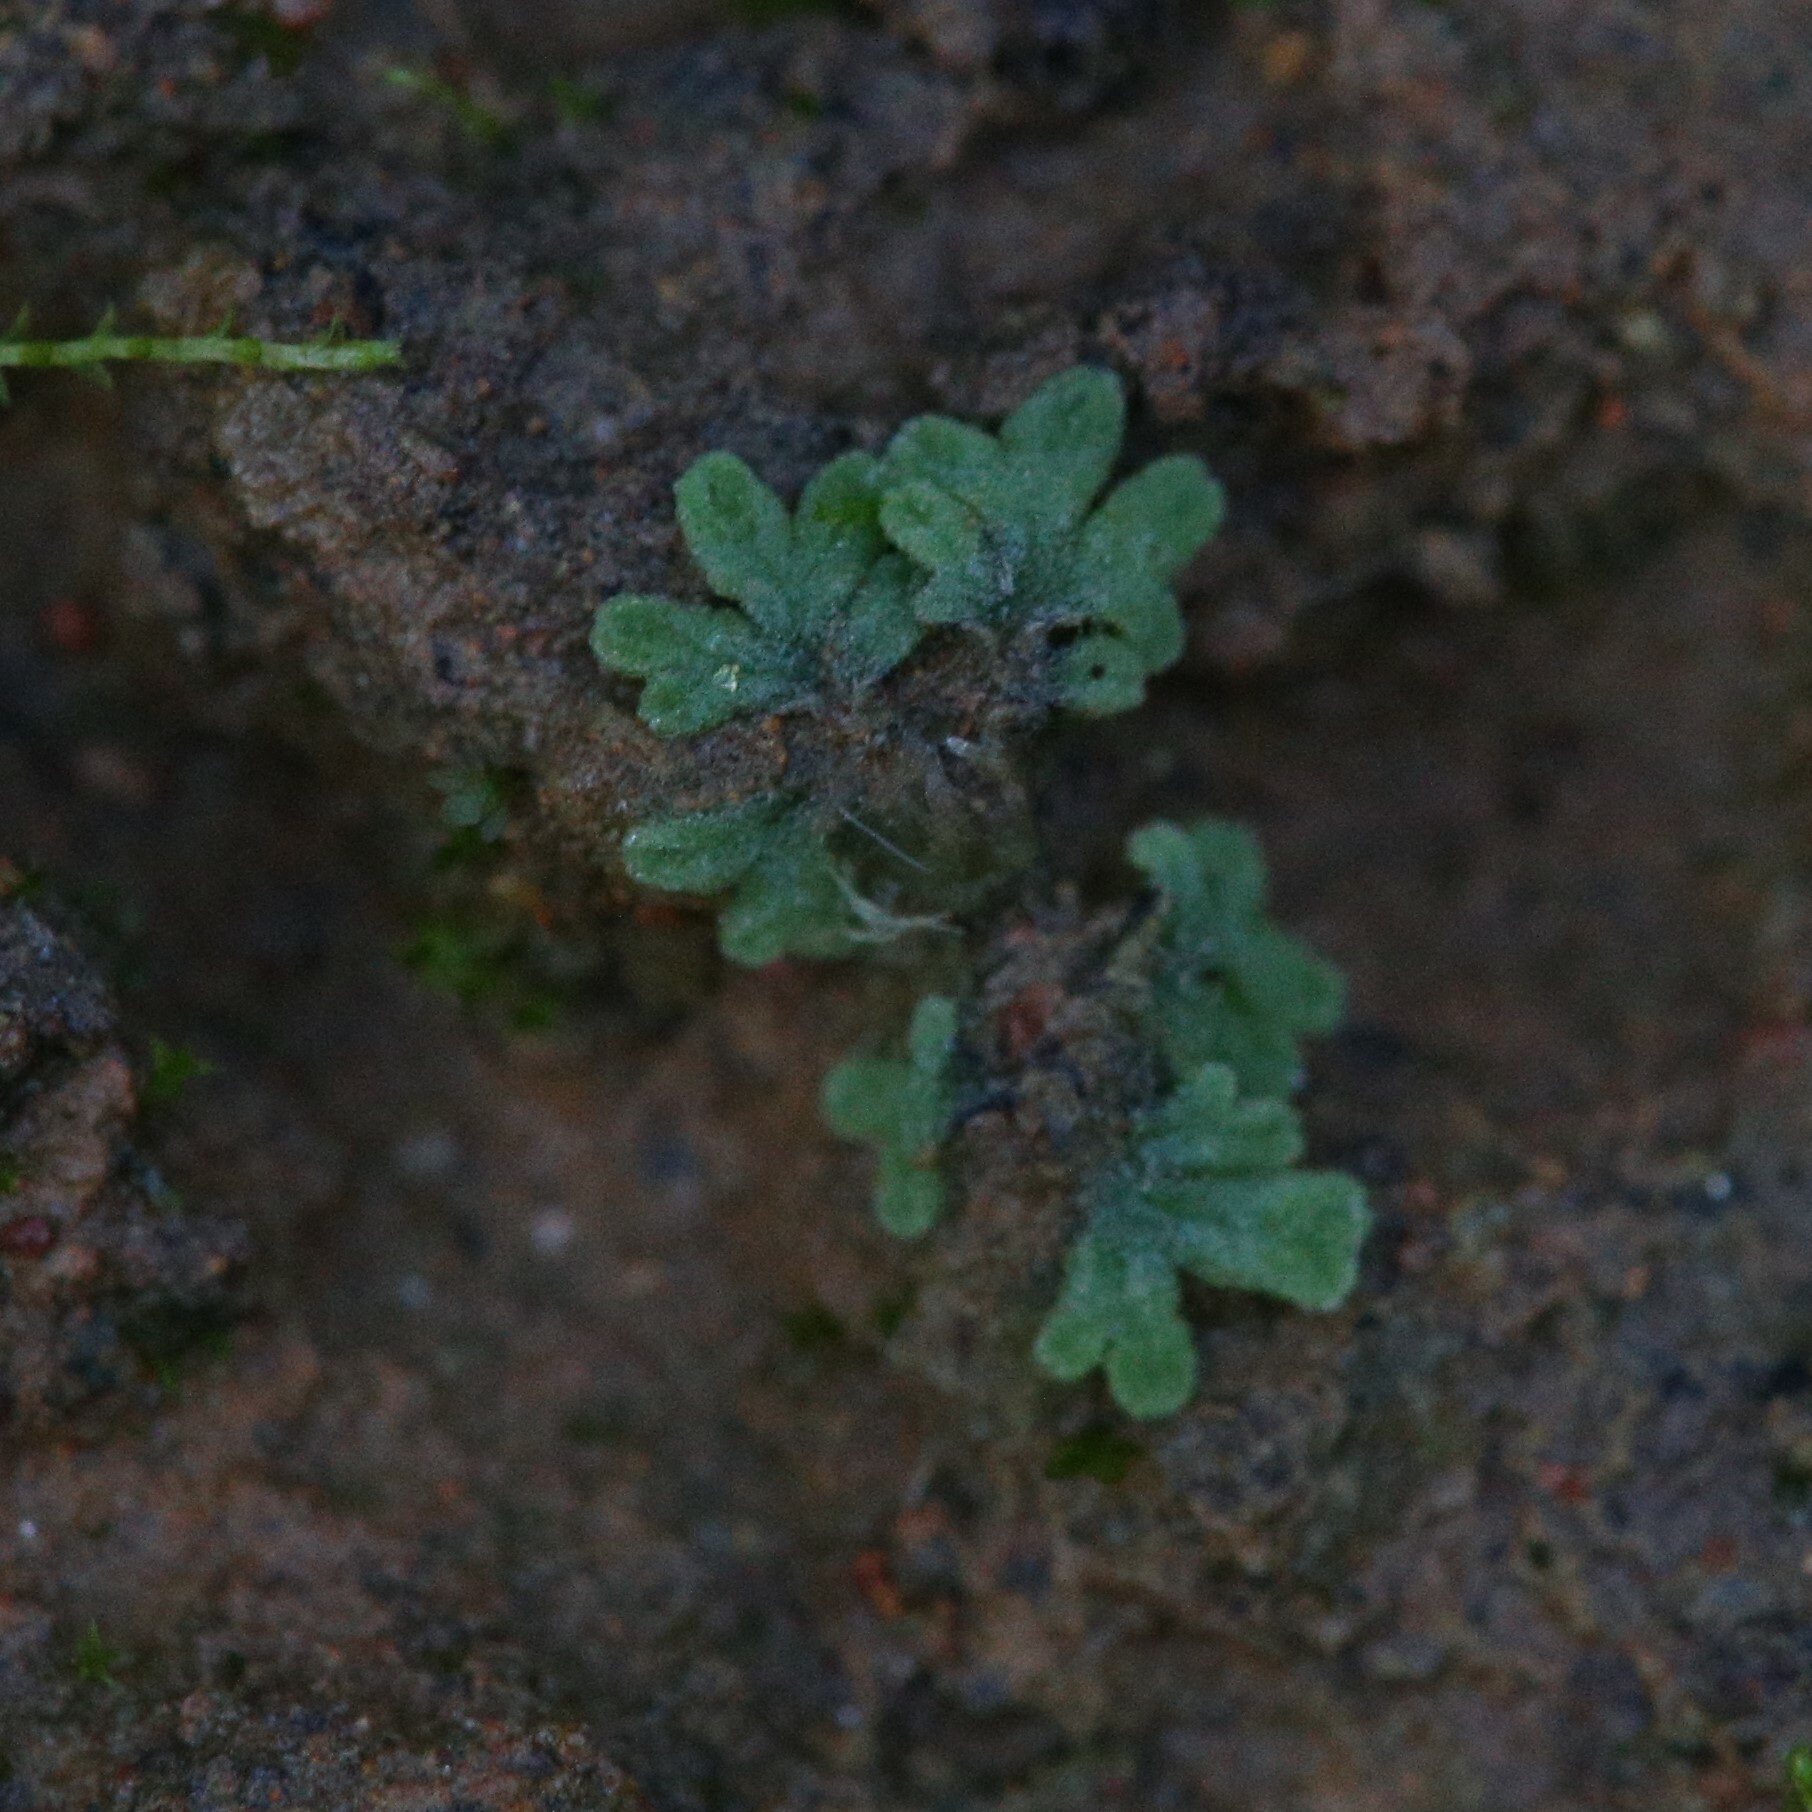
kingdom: Plantae
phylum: Marchantiophyta
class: Marchantiopsida
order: Marchantiales
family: Ricciaceae
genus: Riccia
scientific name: Riccia sorocarpa
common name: Common crystalwort
